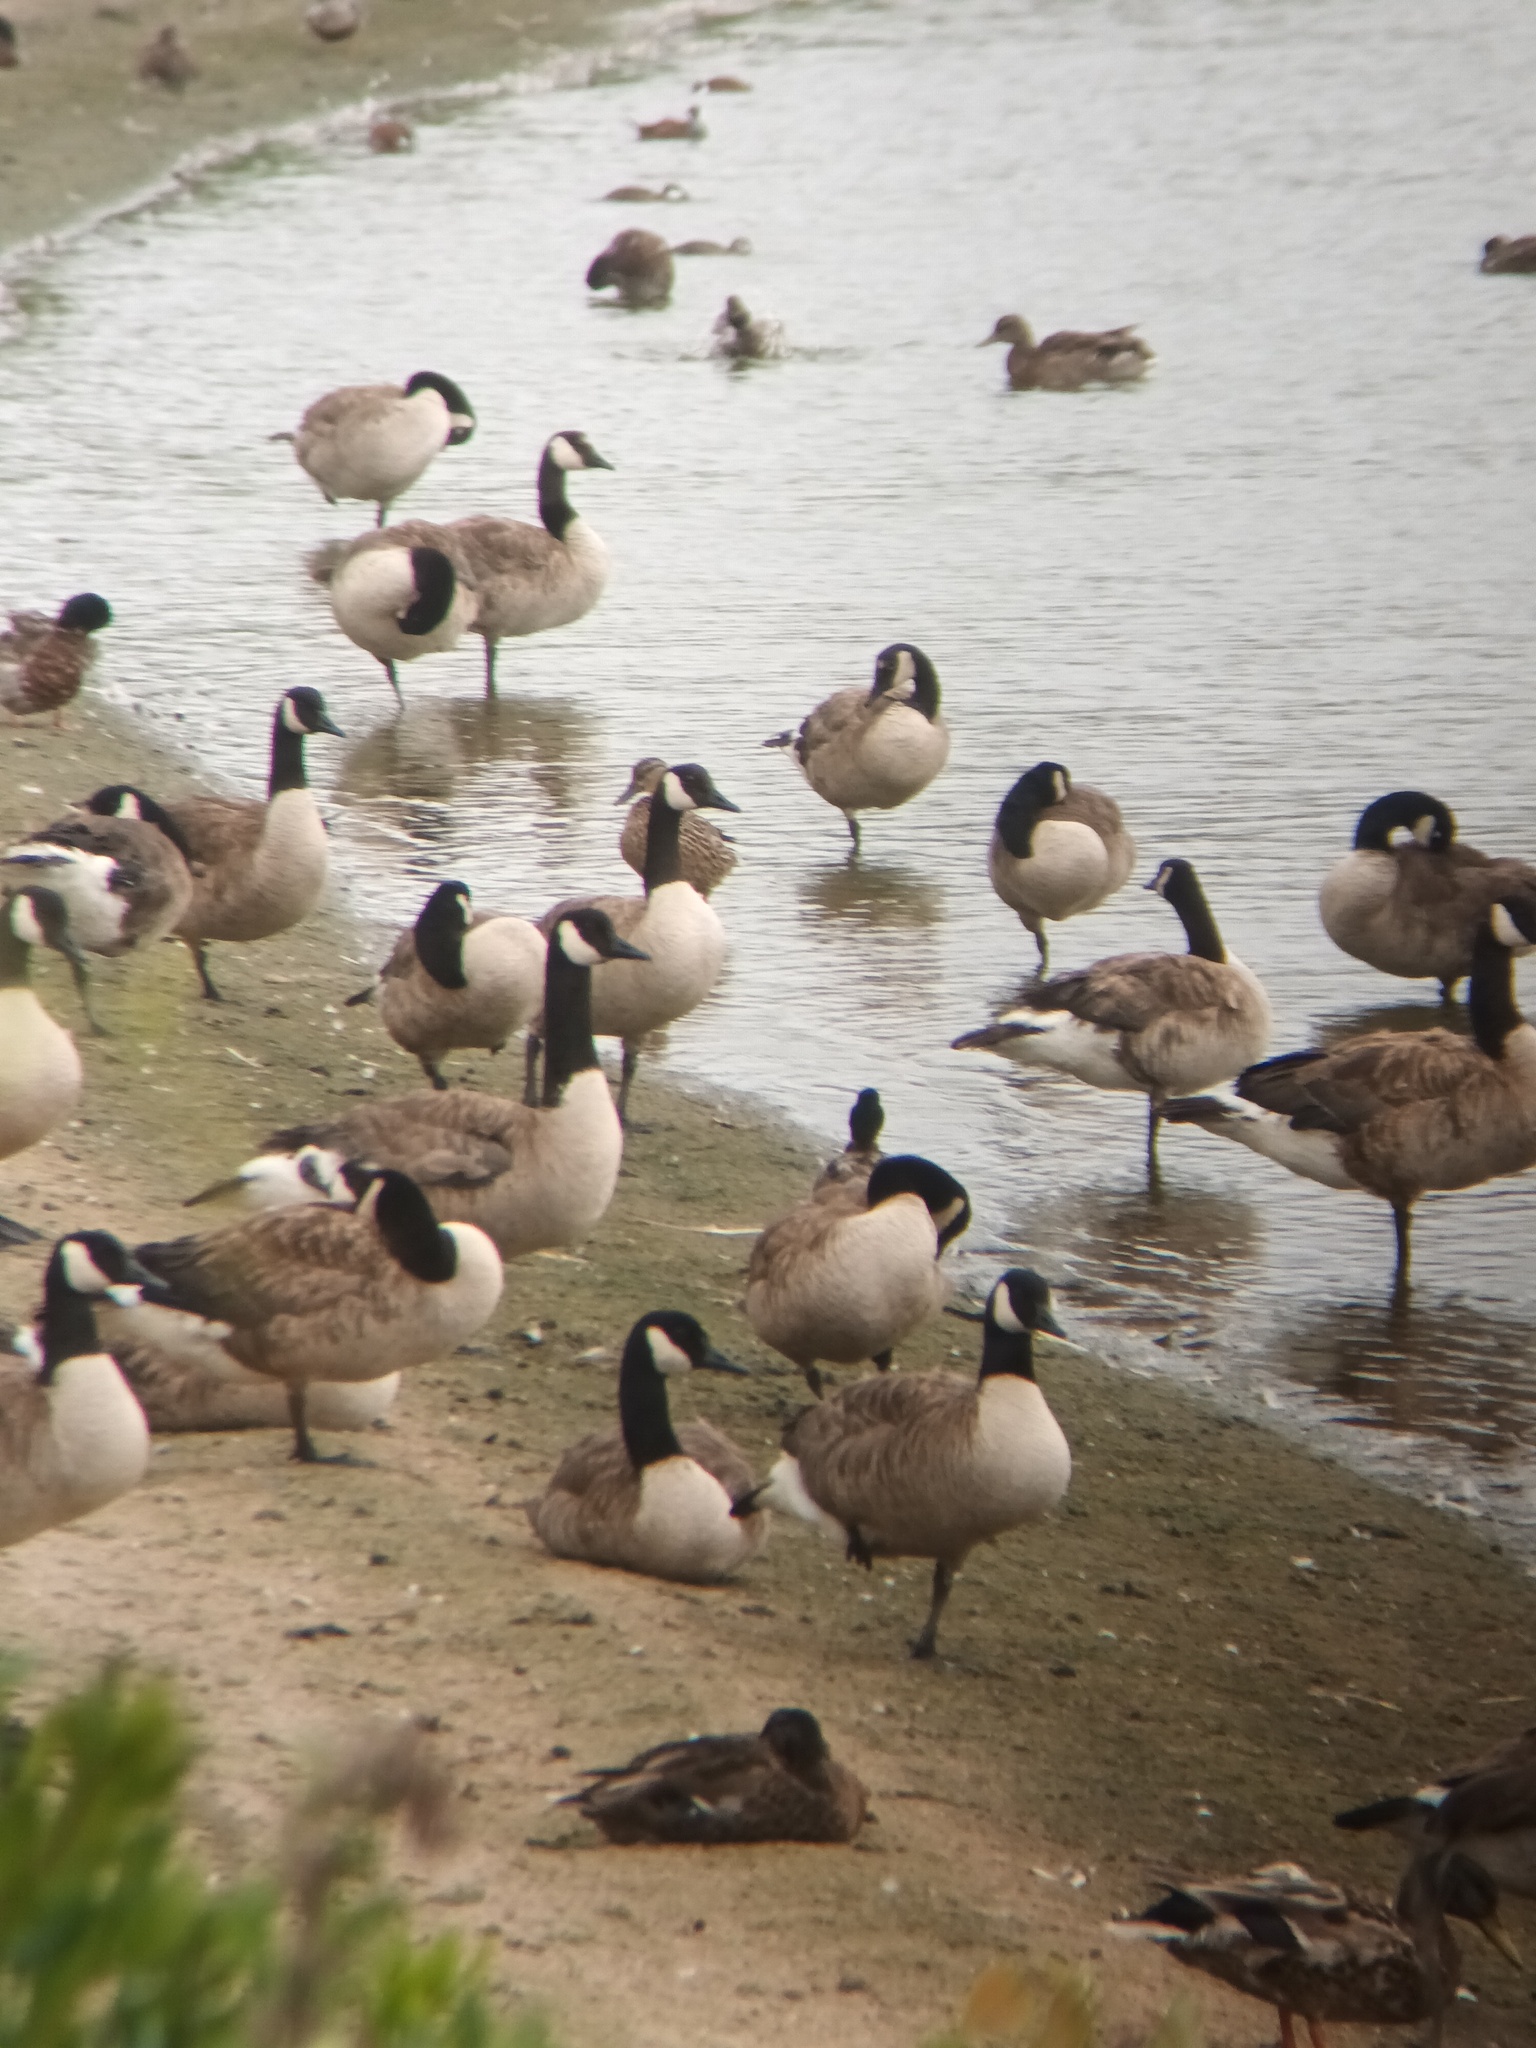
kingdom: Animalia
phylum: Chordata
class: Aves
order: Anseriformes
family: Anatidae
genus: Branta
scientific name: Branta canadensis
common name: Canada goose
